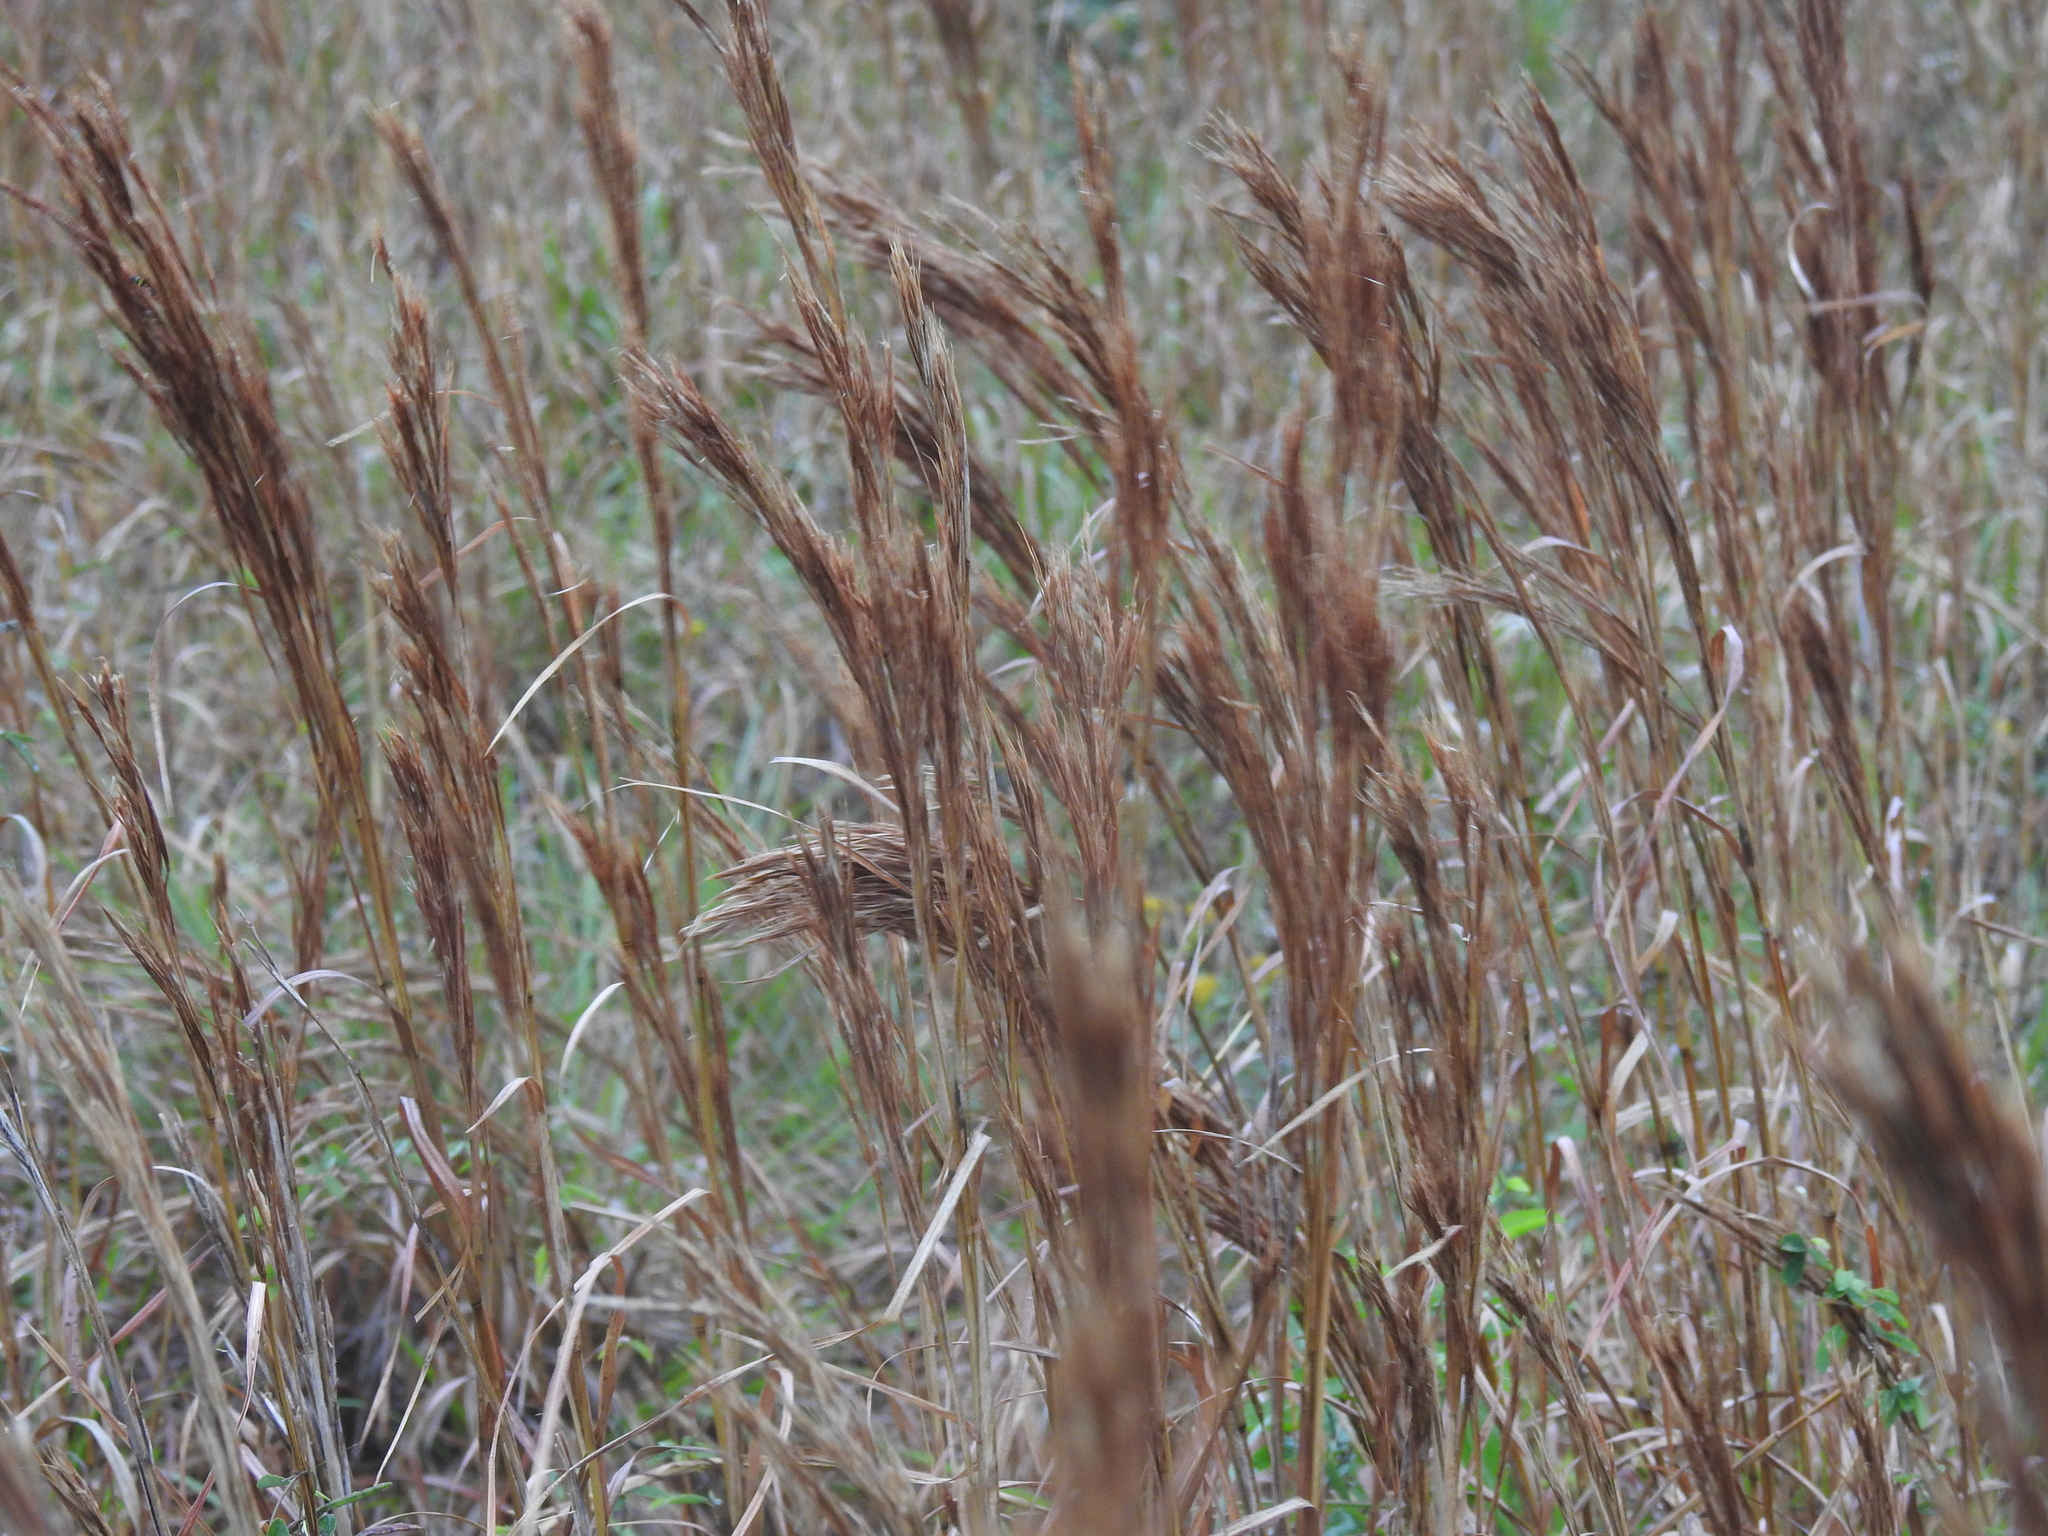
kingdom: Plantae
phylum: Tracheophyta
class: Liliopsida
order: Poales
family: Poaceae
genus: Andropogon
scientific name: Andropogon tenuispatheus
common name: Bushy bluestem
